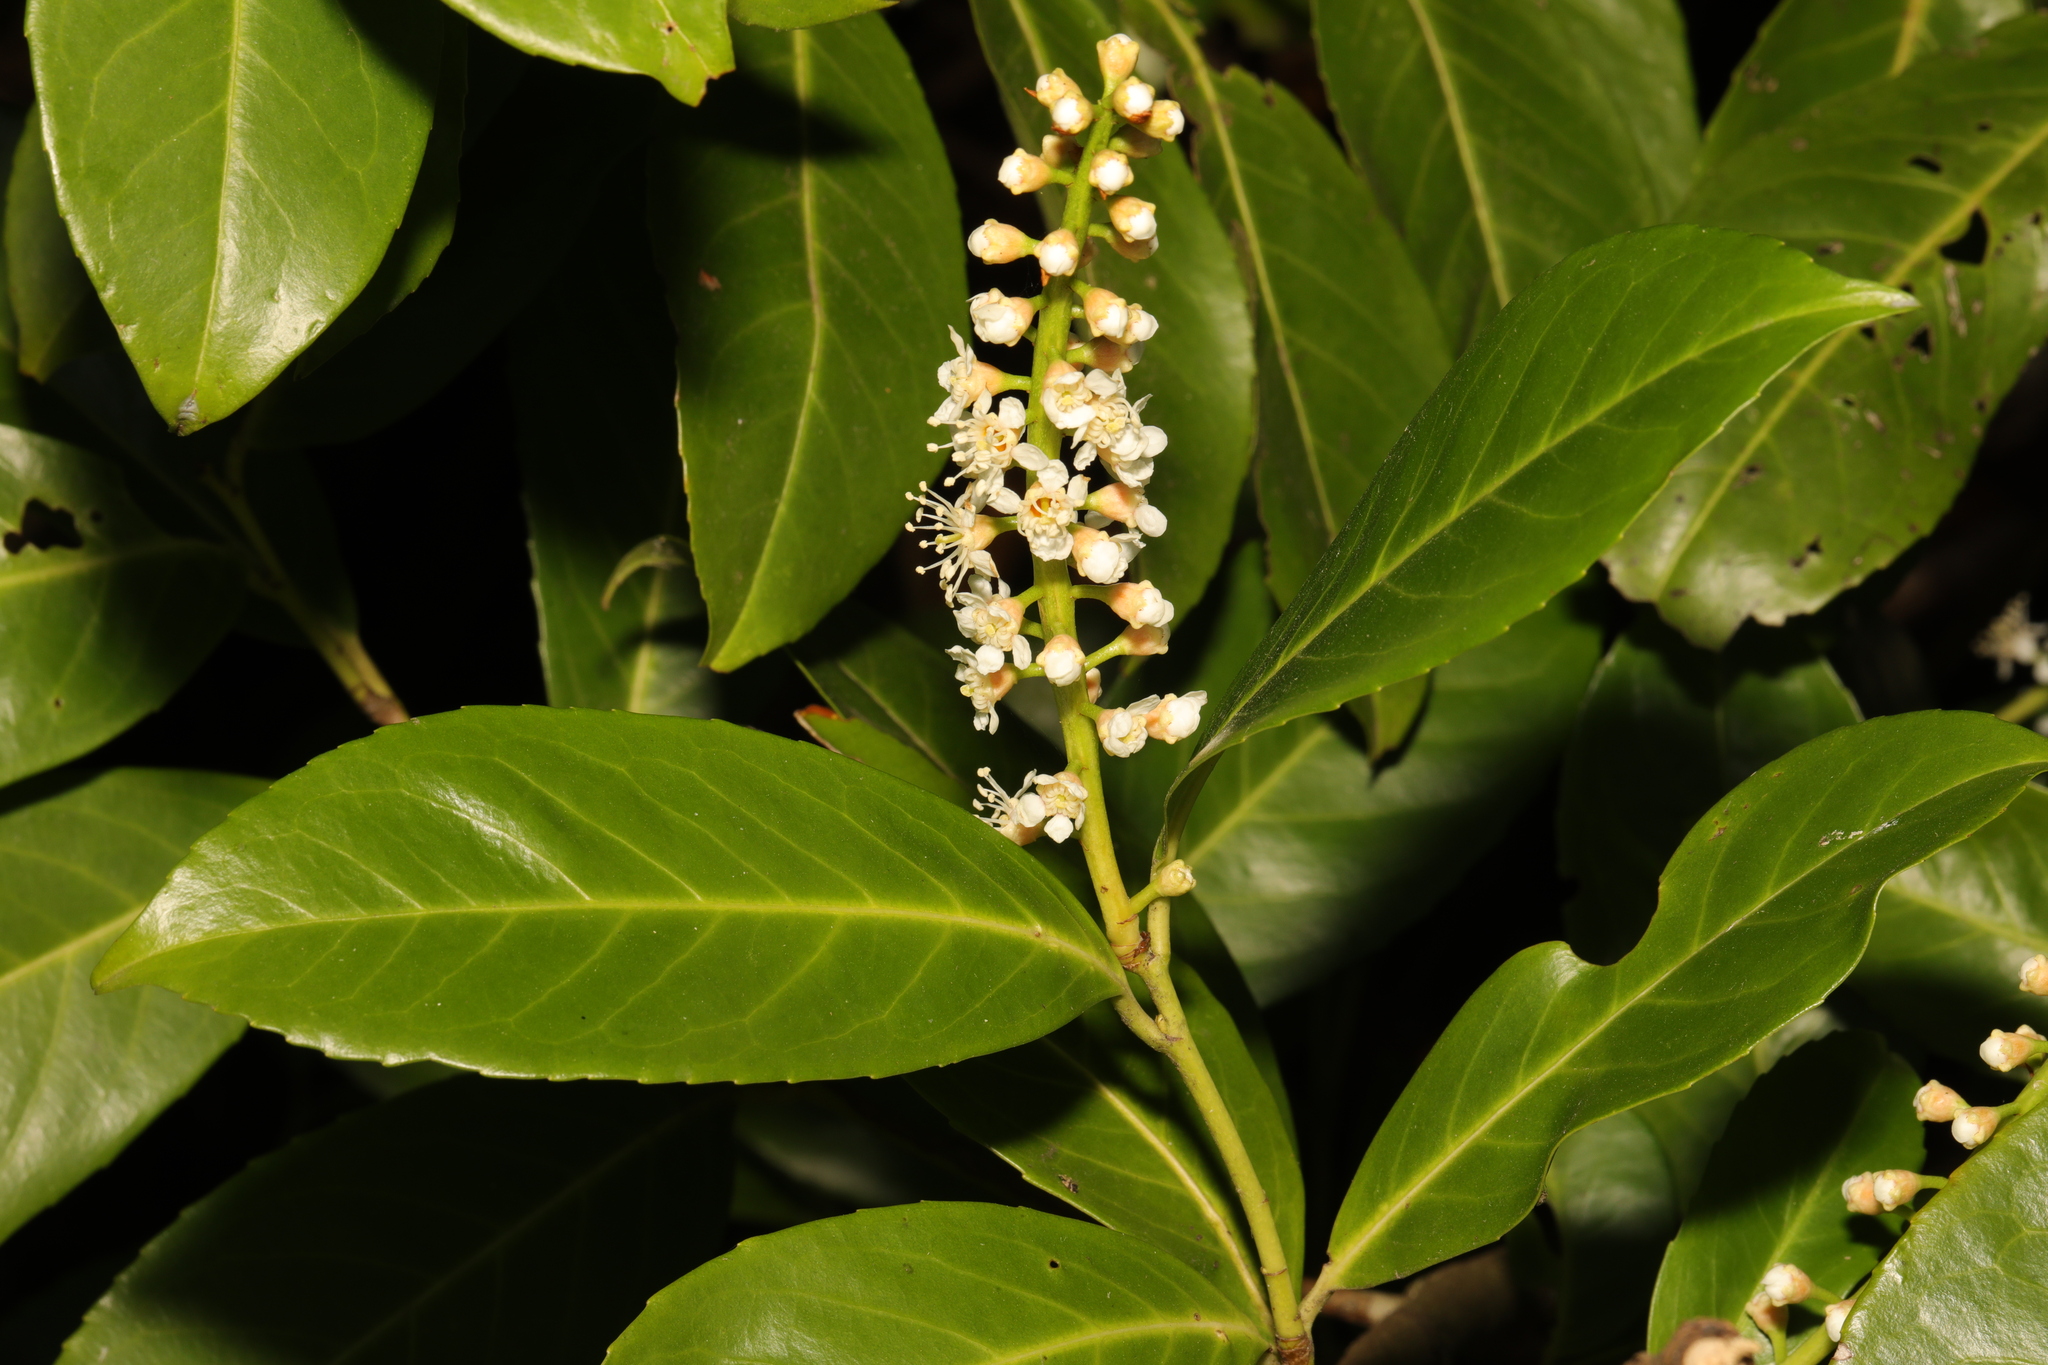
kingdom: Plantae
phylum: Tracheophyta
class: Magnoliopsida
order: Rosales
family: Rosaceae
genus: Prunus
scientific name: Prunus laurocerasus
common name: Cherry laurel
